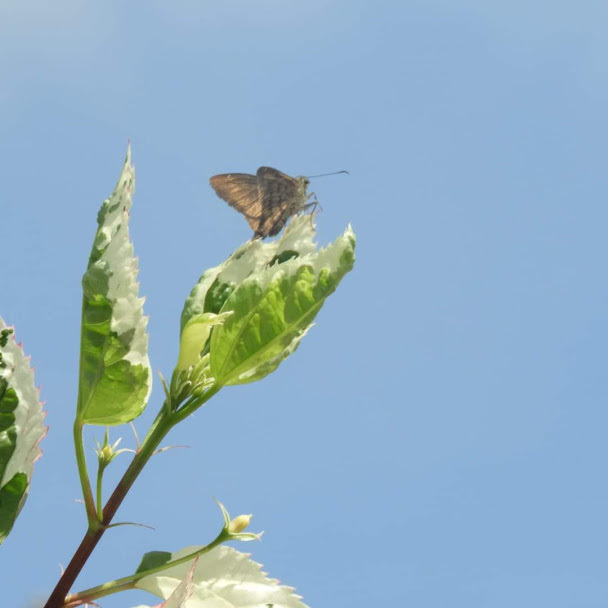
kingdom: Animalia
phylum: Arthropoda
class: Insecta
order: Lepidoptera
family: Hesperiidae
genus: Urbanus
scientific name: Urbanus procne
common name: Brown longtail
